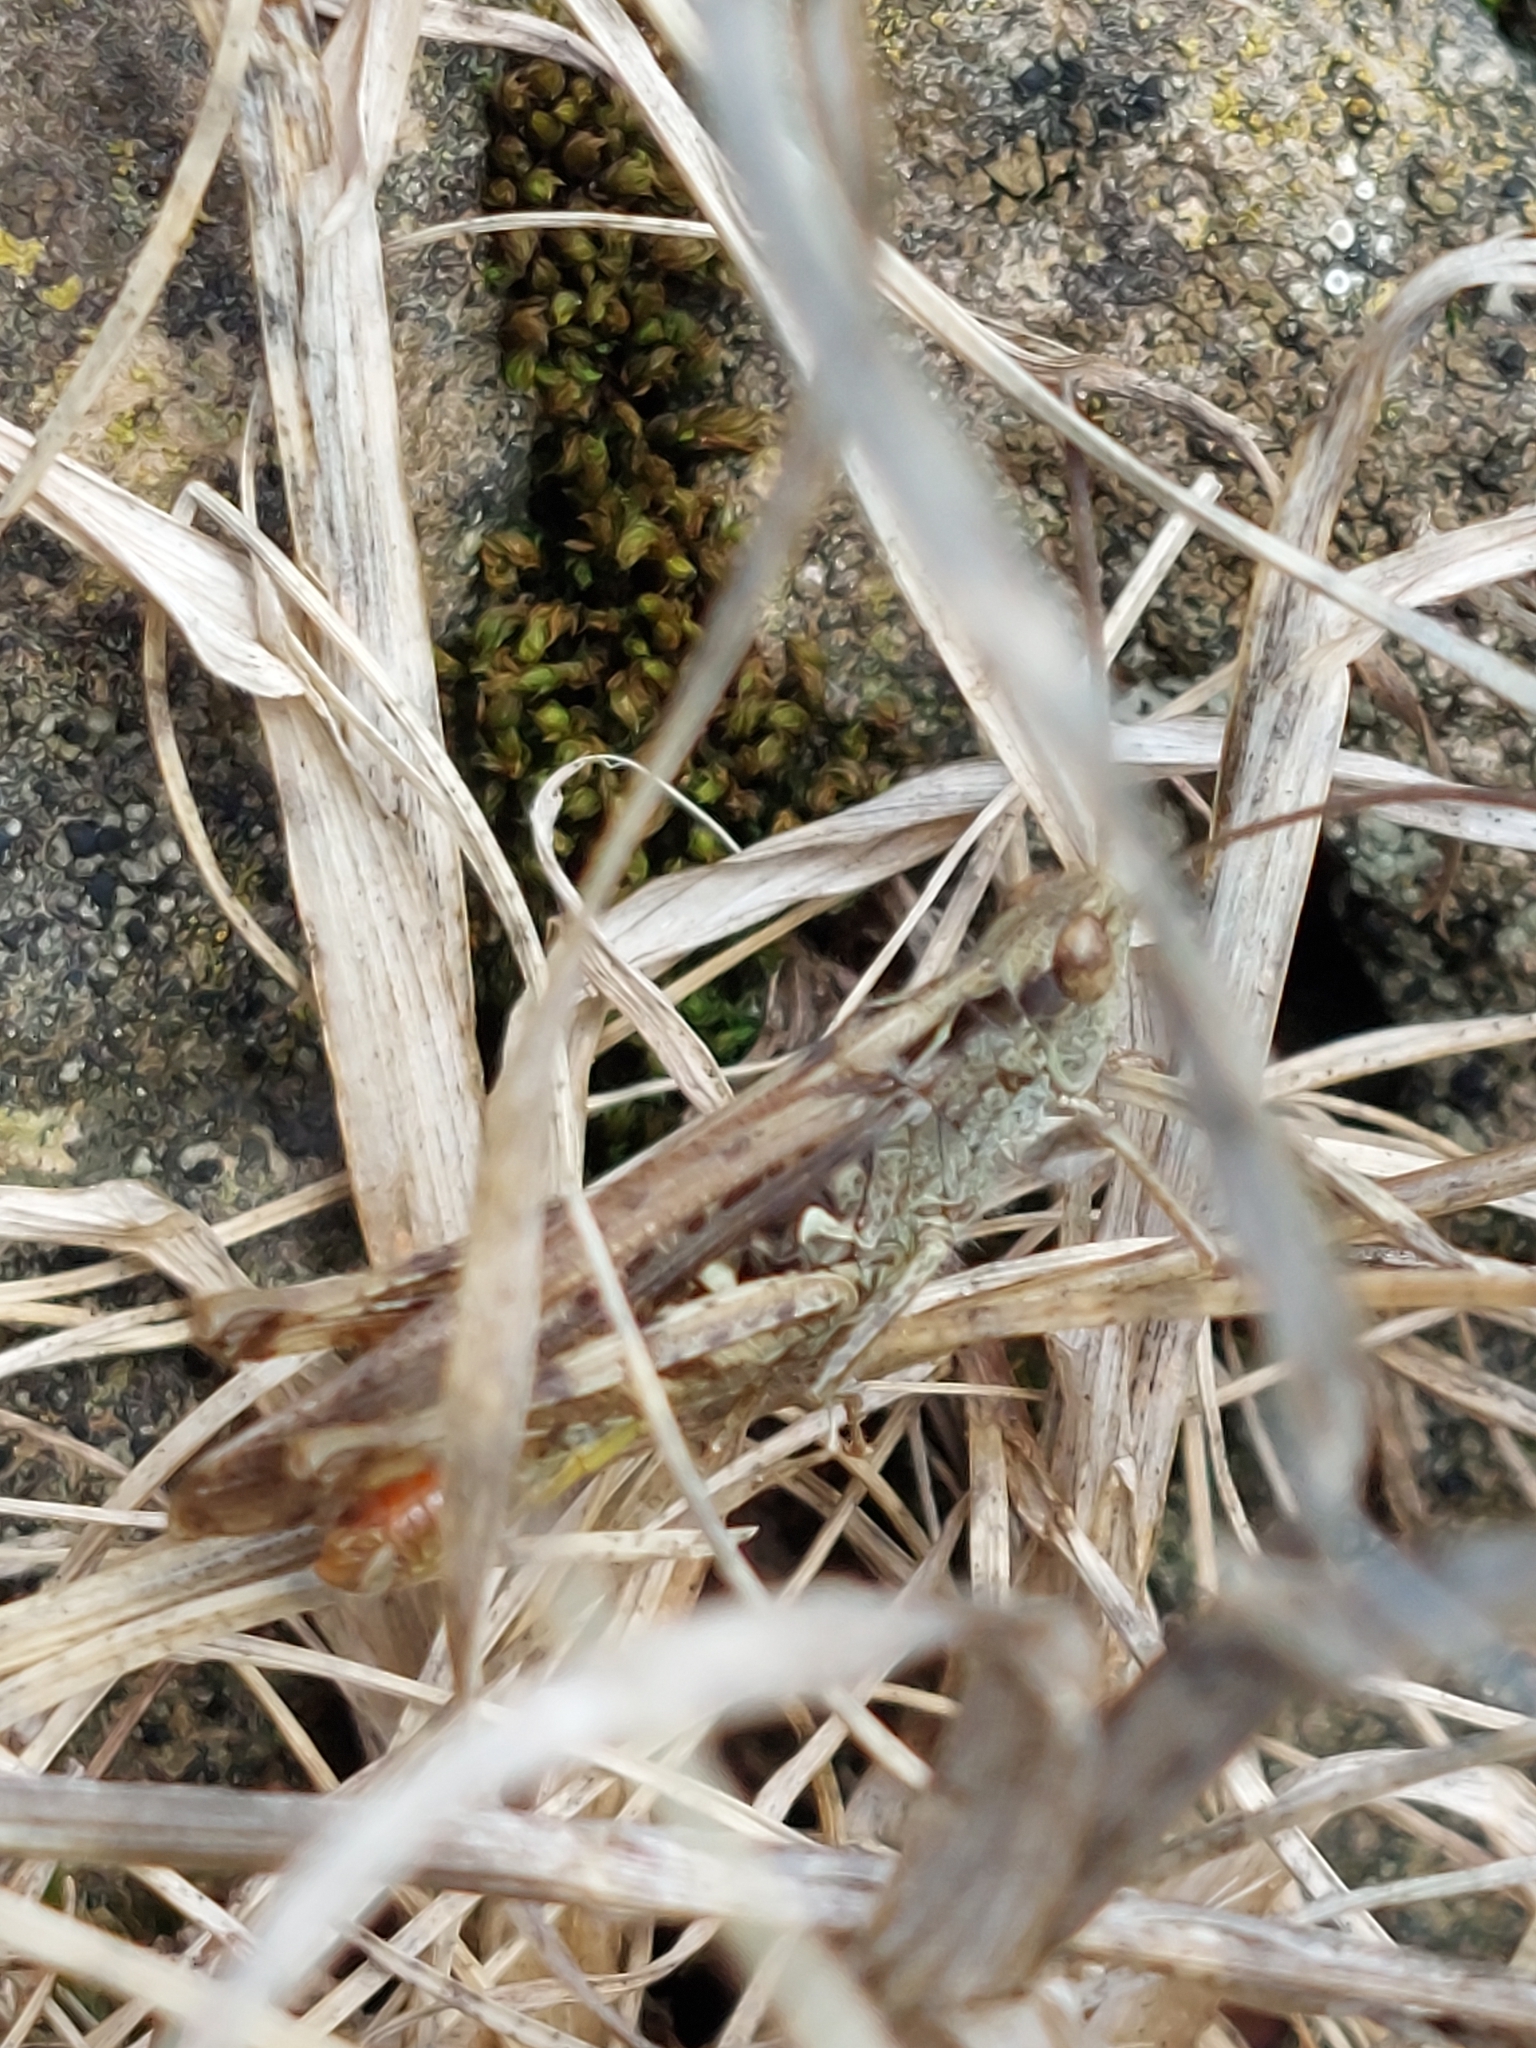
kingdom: Animalia
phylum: Arthropoda
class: Insecta
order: Orthoptera
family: Acrididae
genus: Chorthippus
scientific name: Chorthippus brunneus
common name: Field grasshopper
